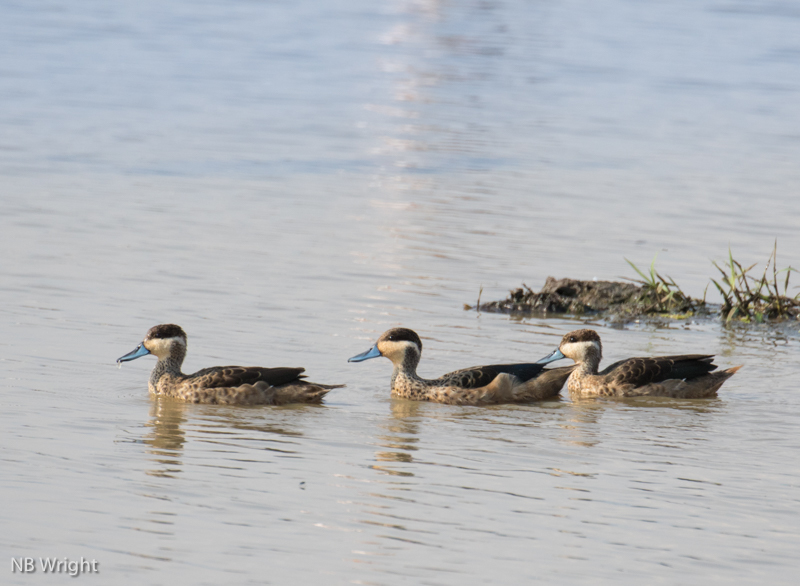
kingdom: Animalia
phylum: Chordata
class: Aves
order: Anseriformes
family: Anatidae
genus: Spatula
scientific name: Spatula hottentota
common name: Blue-billed teal
